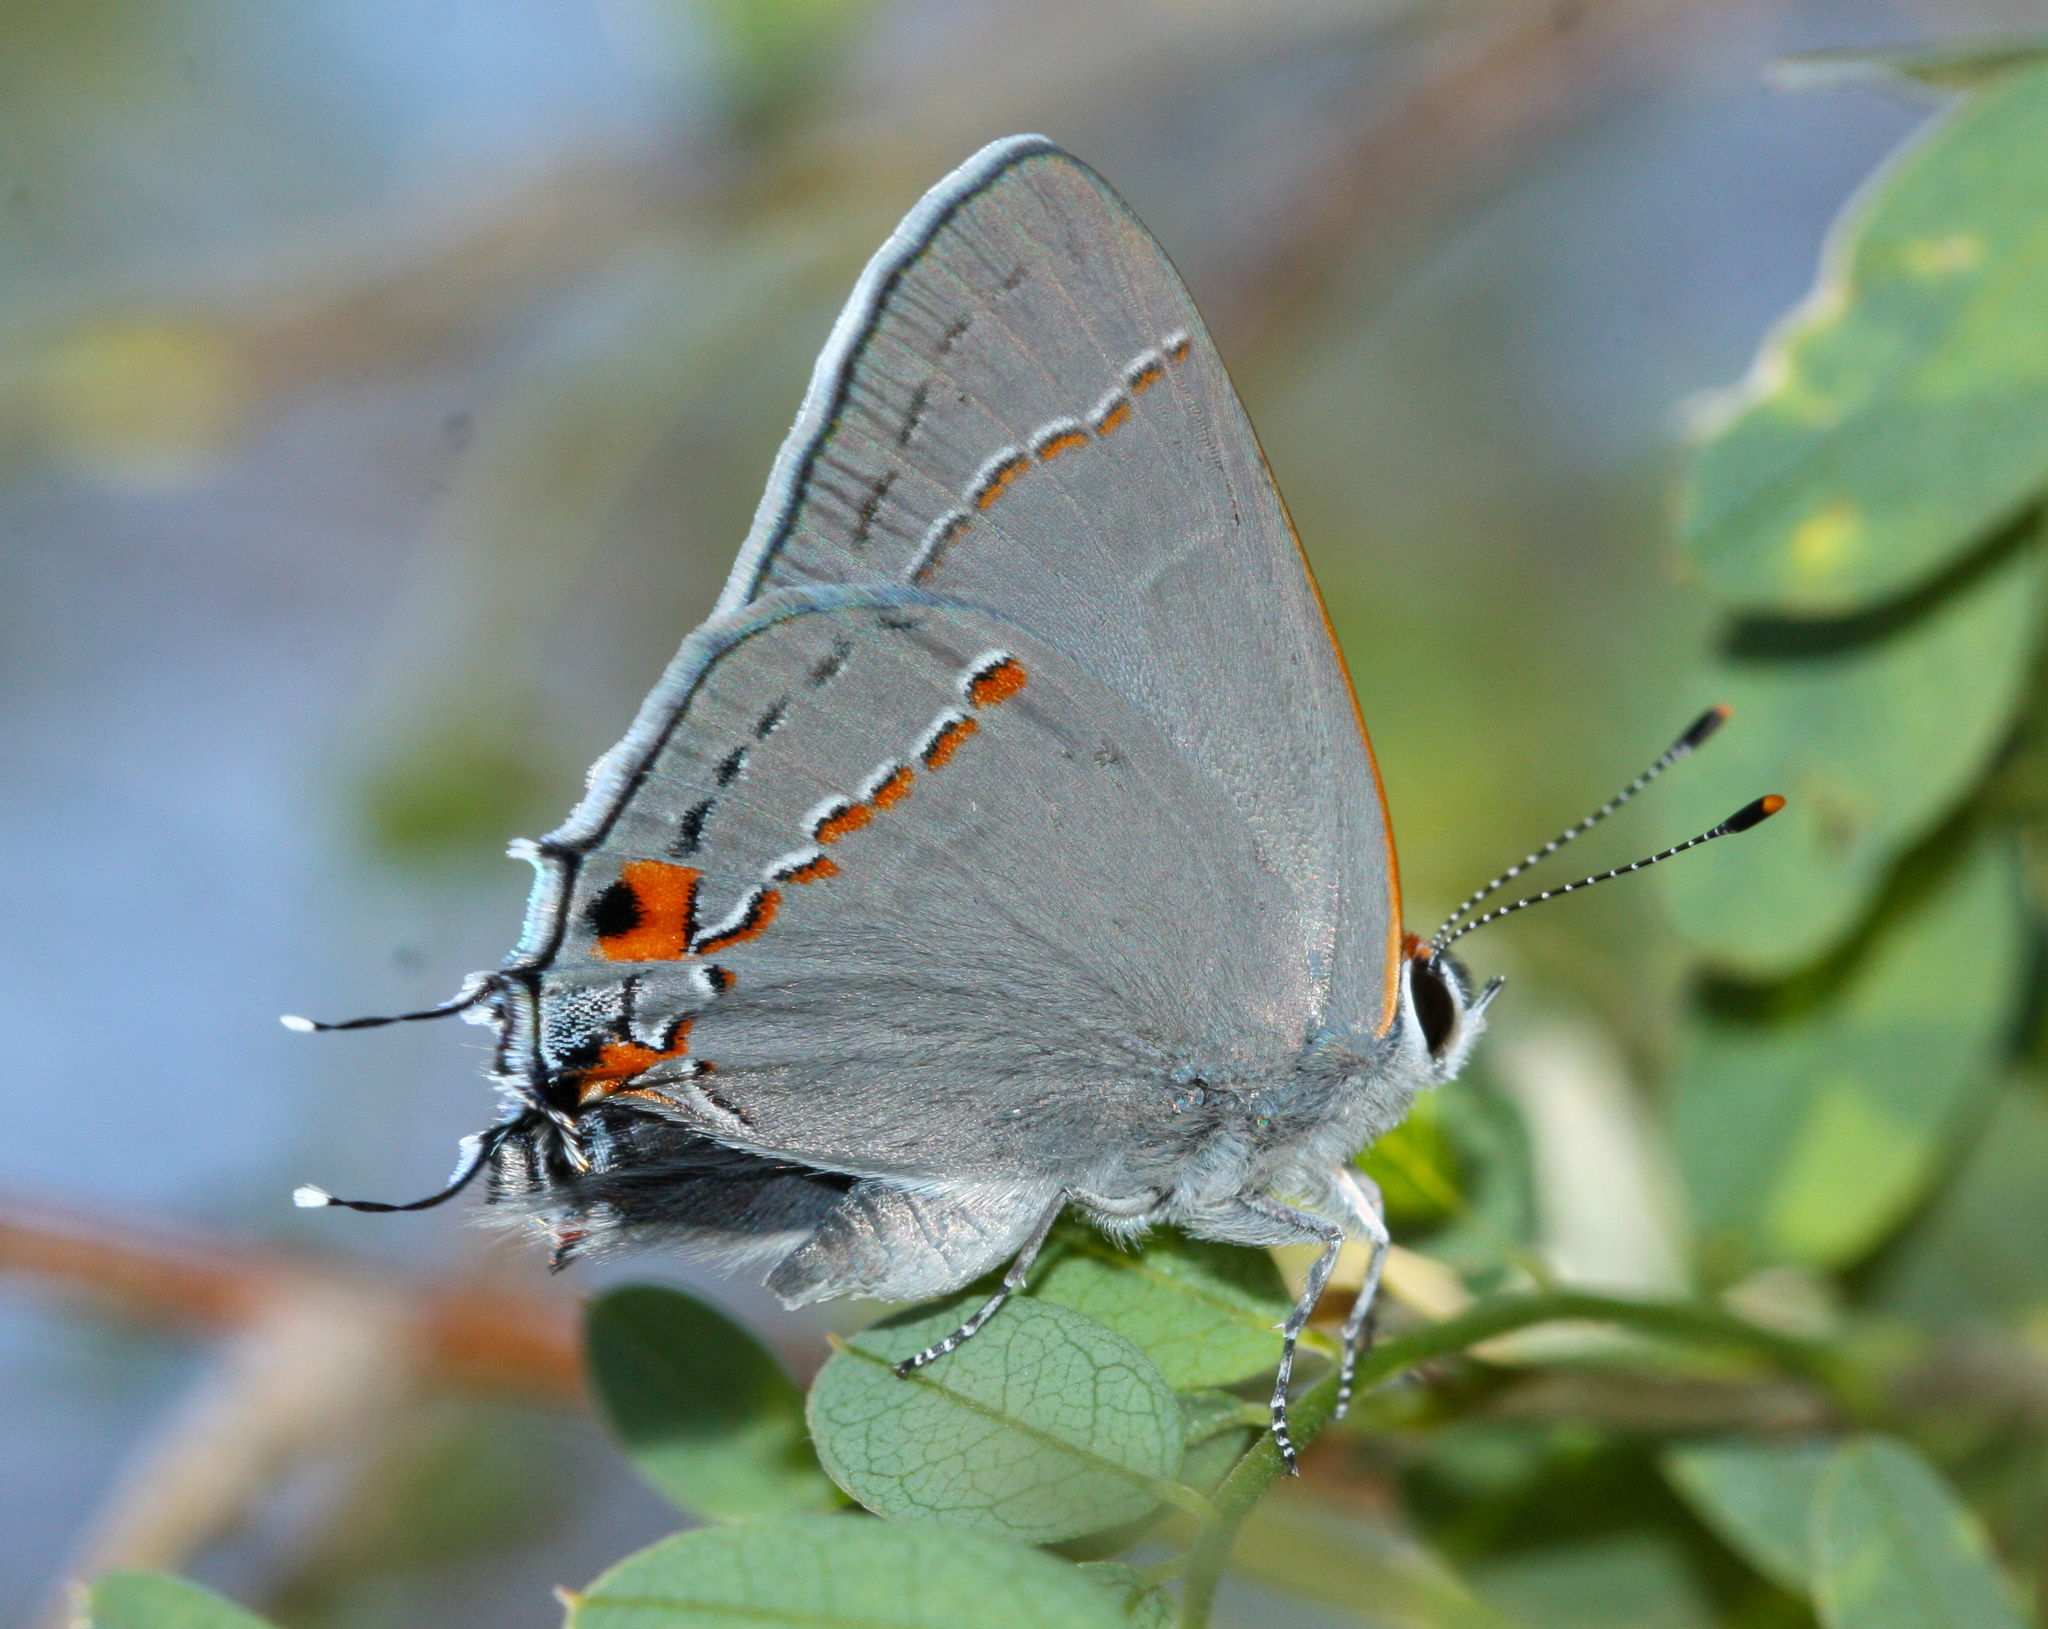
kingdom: Animalia
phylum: Arthropoda
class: Insecta
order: Lepidoptera
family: Lycaenidae
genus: Strymon
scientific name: Strymon melinus
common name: Gray hairstreak
